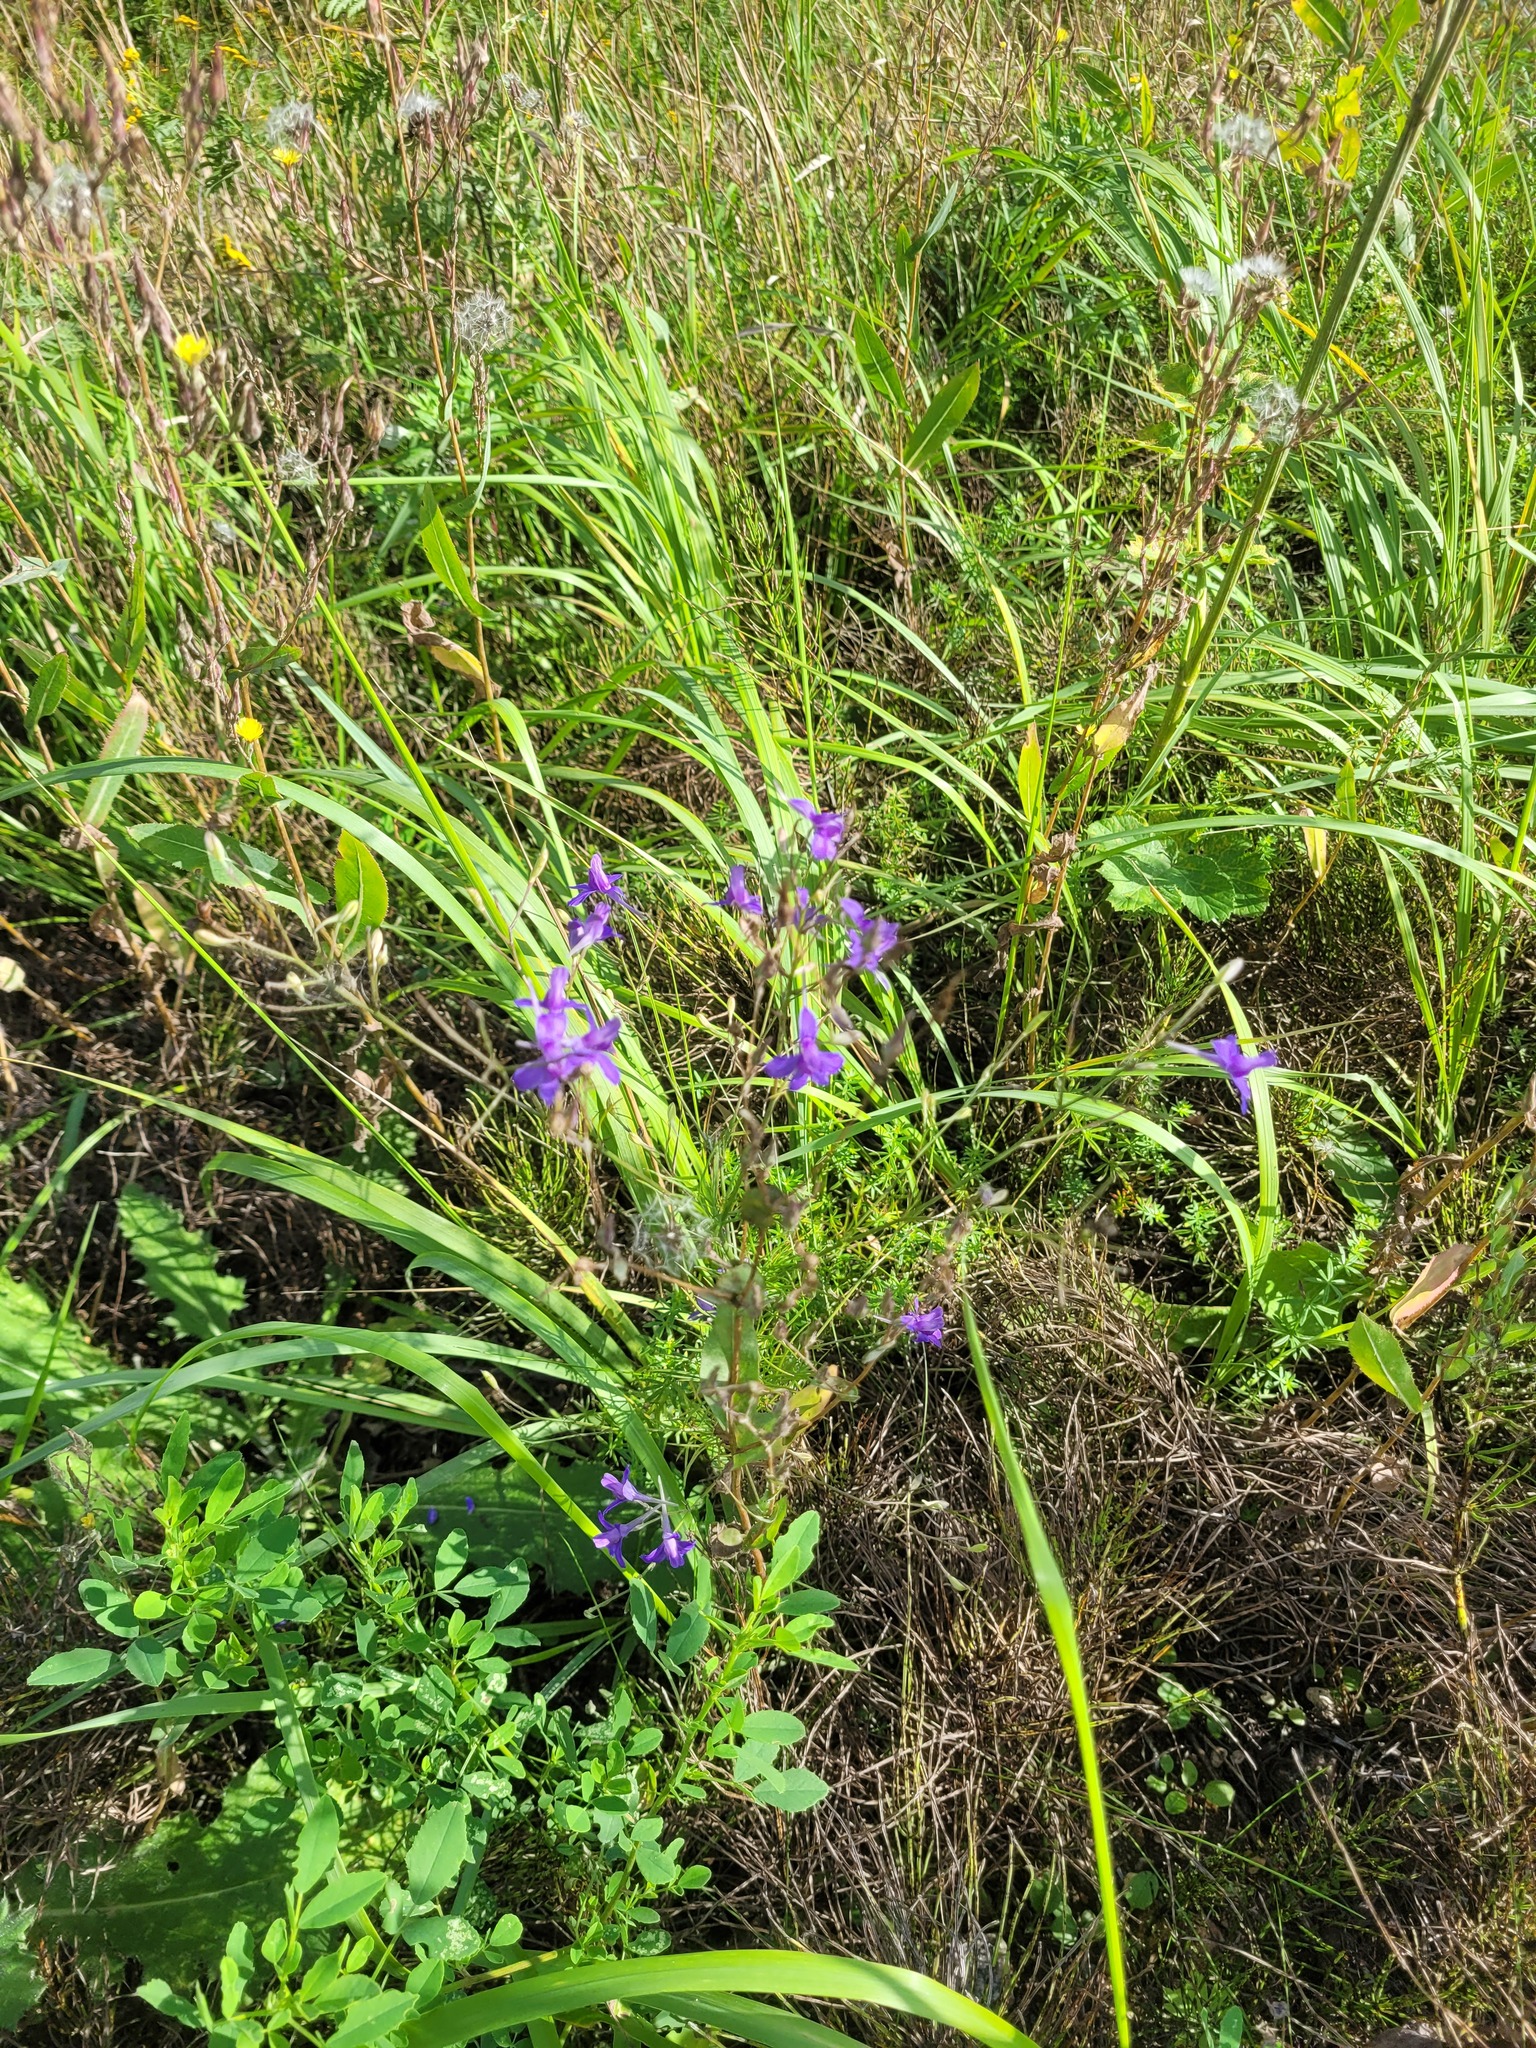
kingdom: Plantae
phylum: Tracheophyta
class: Magnoliopsida
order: Ranunculales
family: Ranunculaceae
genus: Delphinium
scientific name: Delphinium consolida
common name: Branching larkspur
